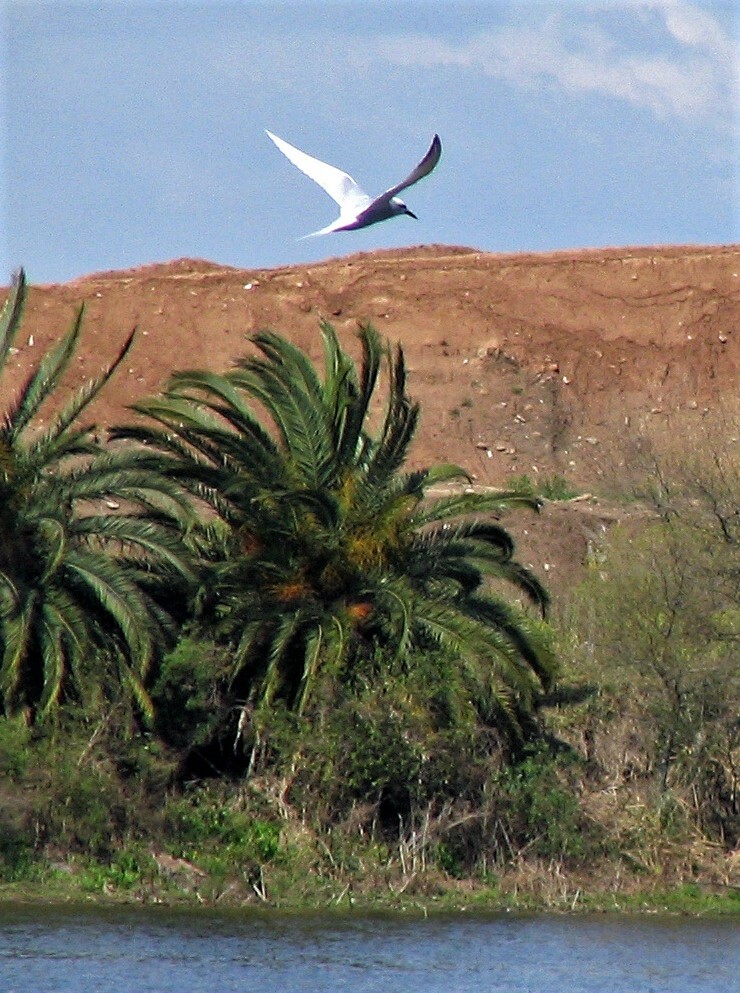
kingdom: Animalia
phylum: Chordata
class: Aves
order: Charadriiformes
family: Laridae
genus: Sterna
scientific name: Sterna trudeaui
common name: Snowy-crowned tern
